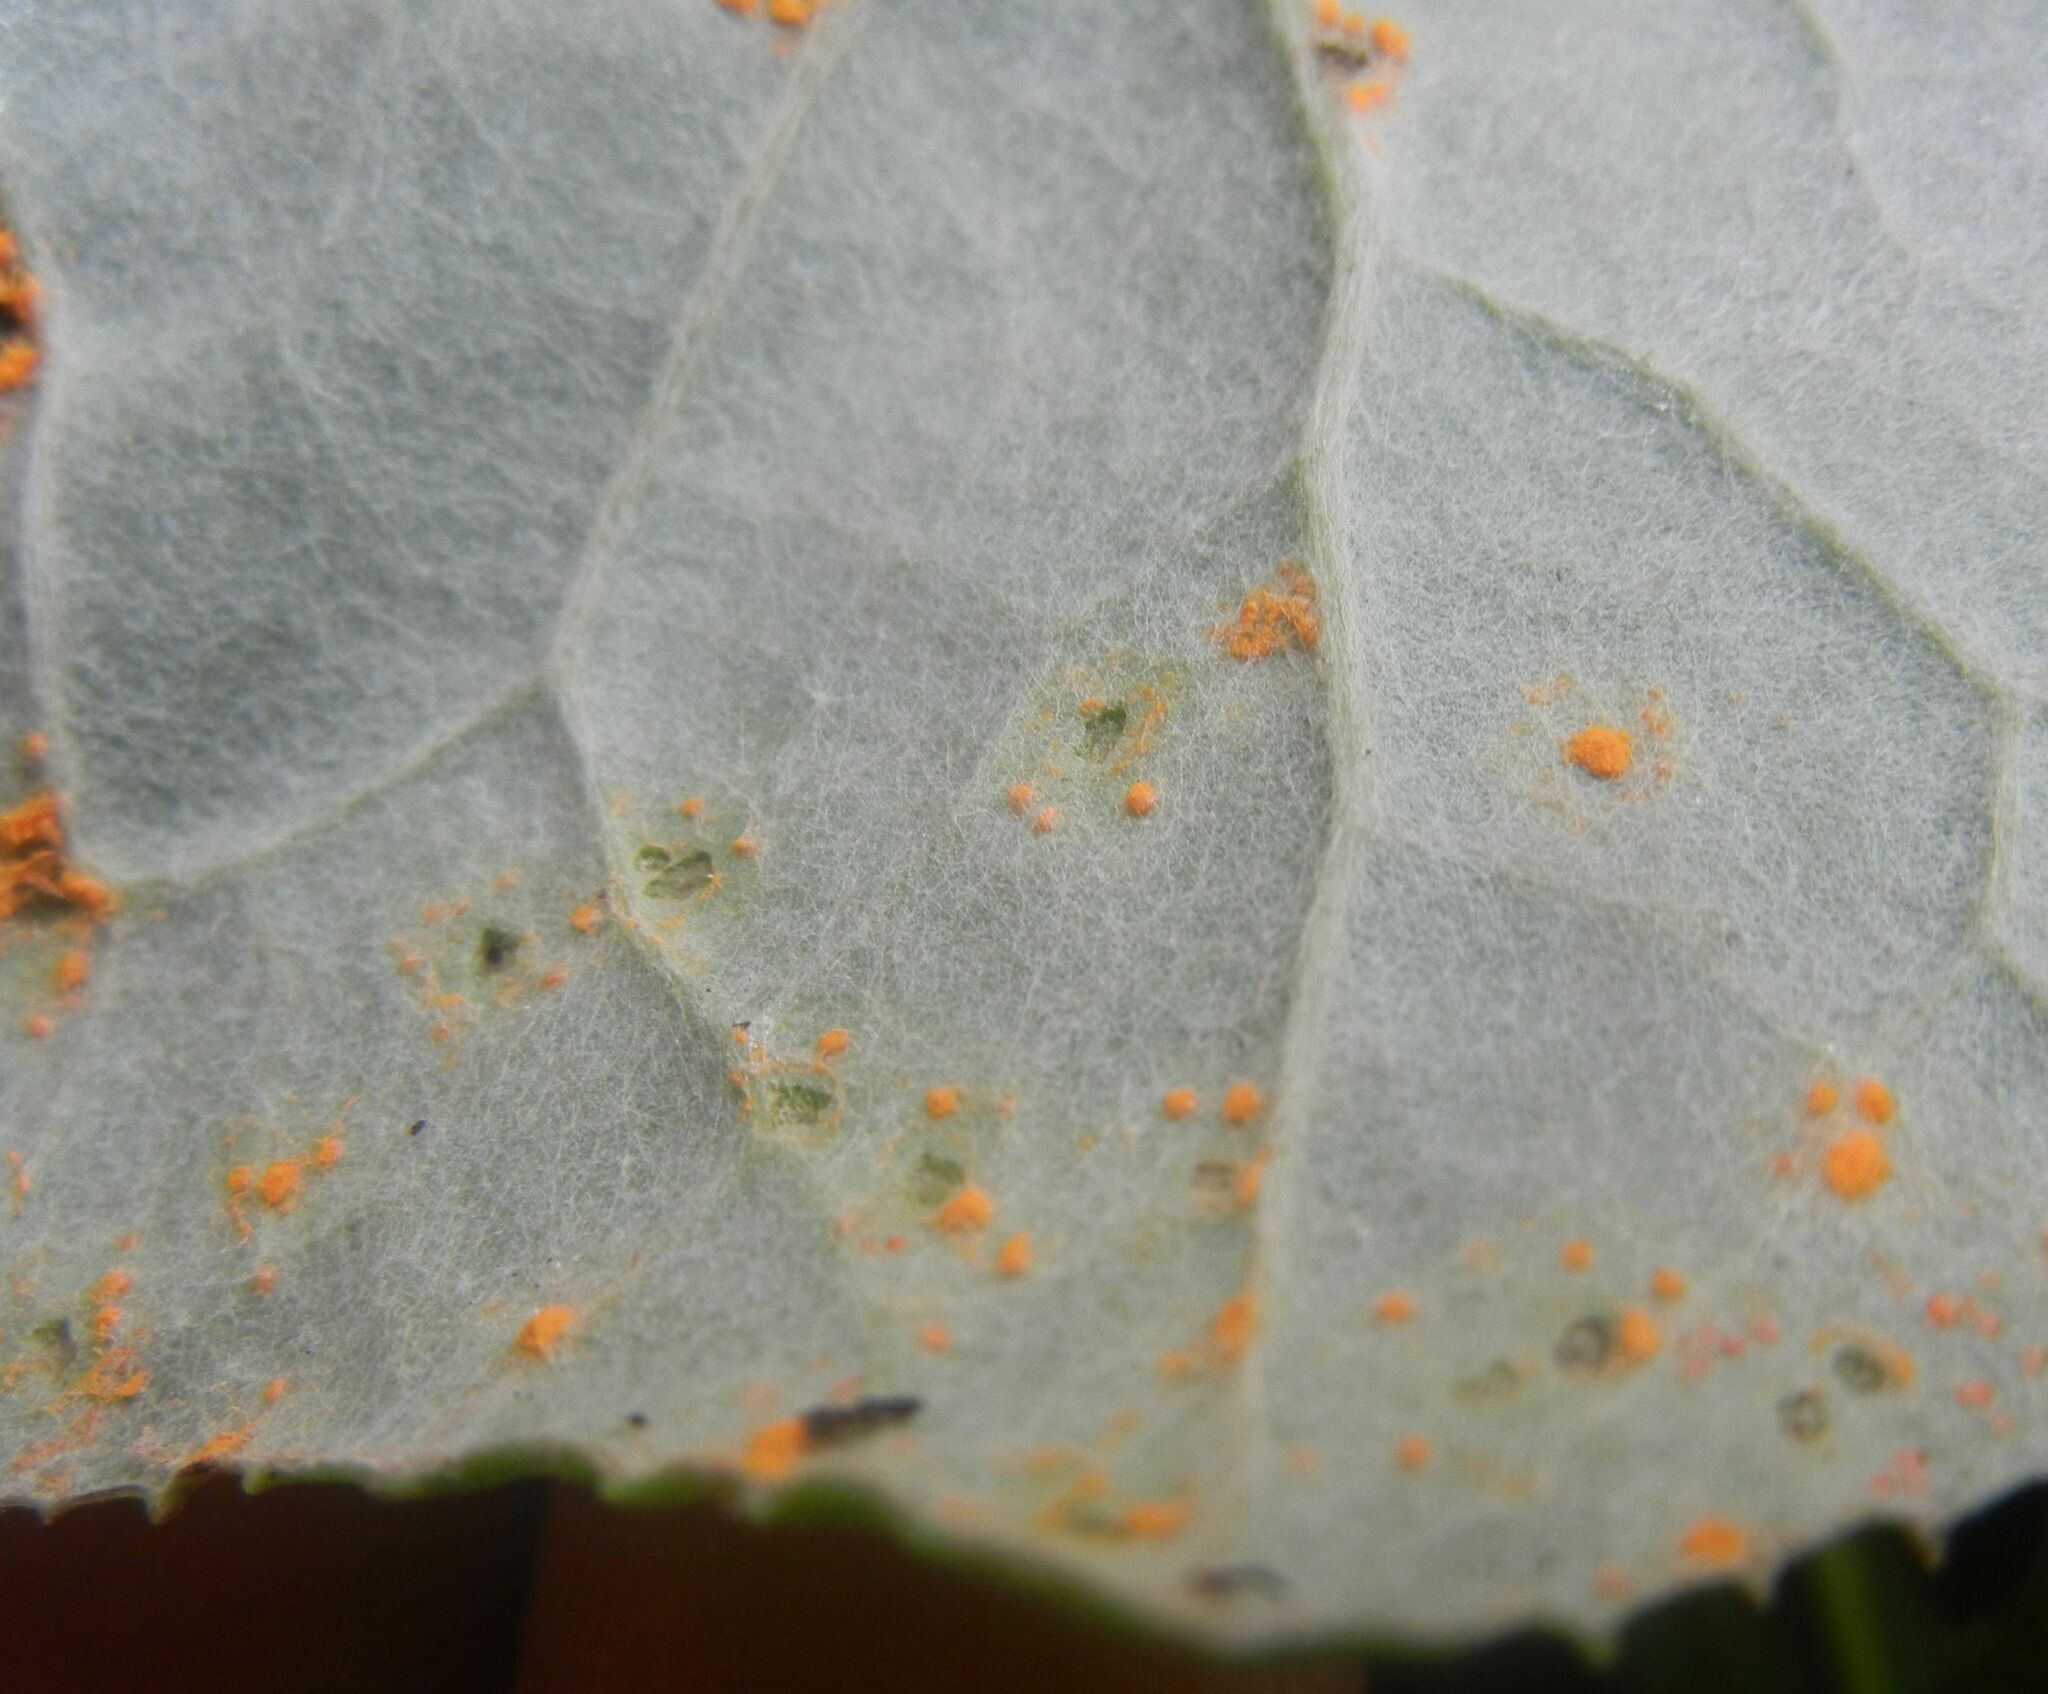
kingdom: Fungi
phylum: Basidiomycota
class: Pucciniomycetes
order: Pucciniales
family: Coleosporiaceae
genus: Coleosporium
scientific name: Coleosporium tussilaginis
